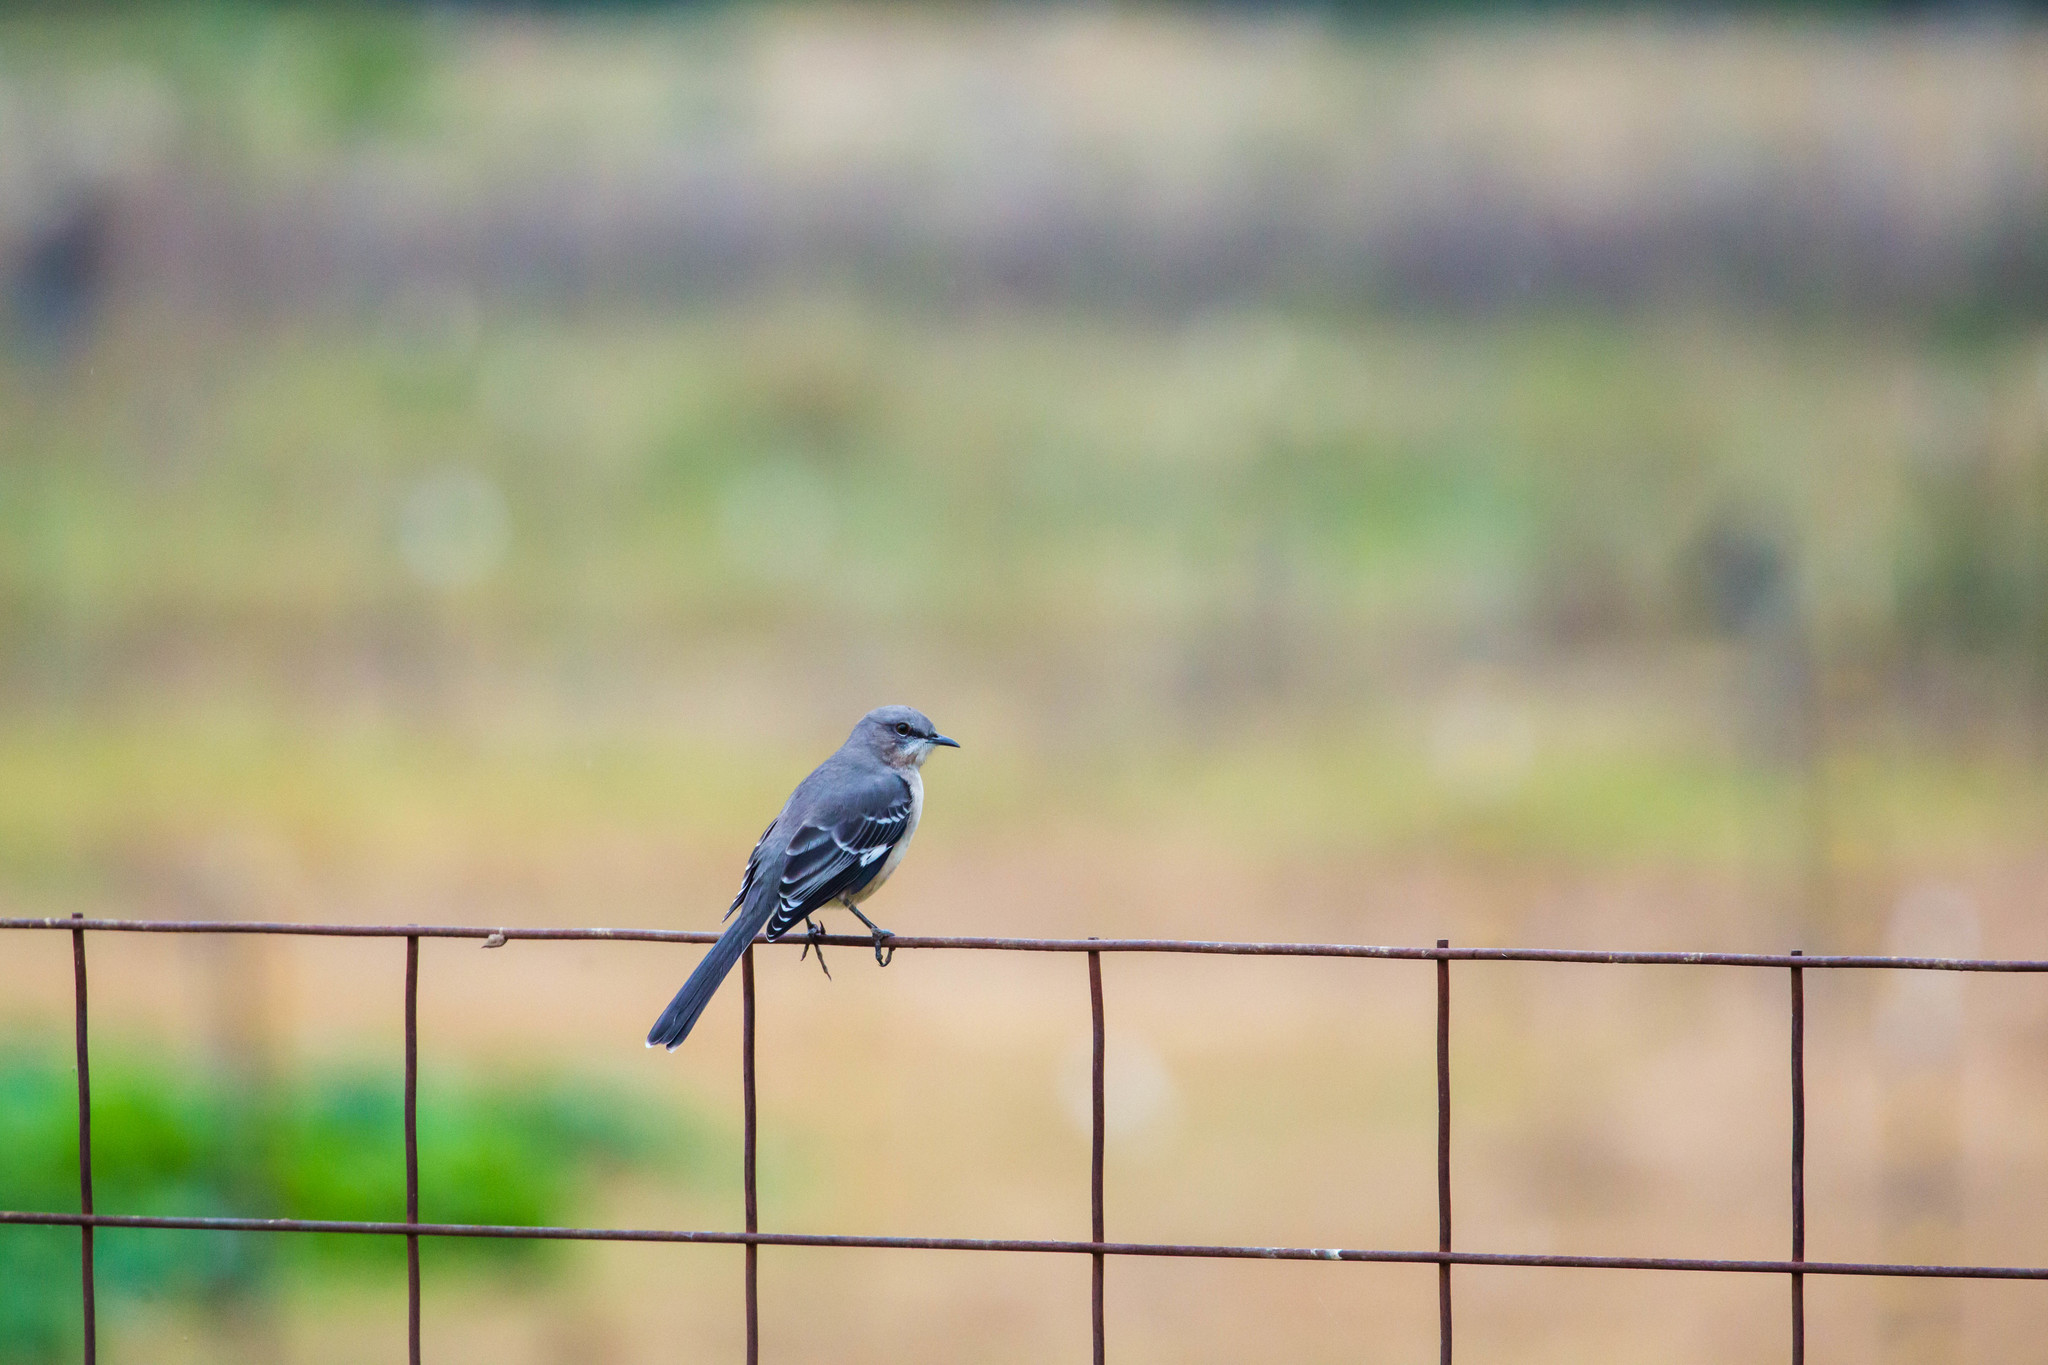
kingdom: Animalia
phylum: Chordata
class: Aves
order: Passeriformes
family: Mimidae
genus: Mimus
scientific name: Mimus polyglottos
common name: Northern mockingbird
